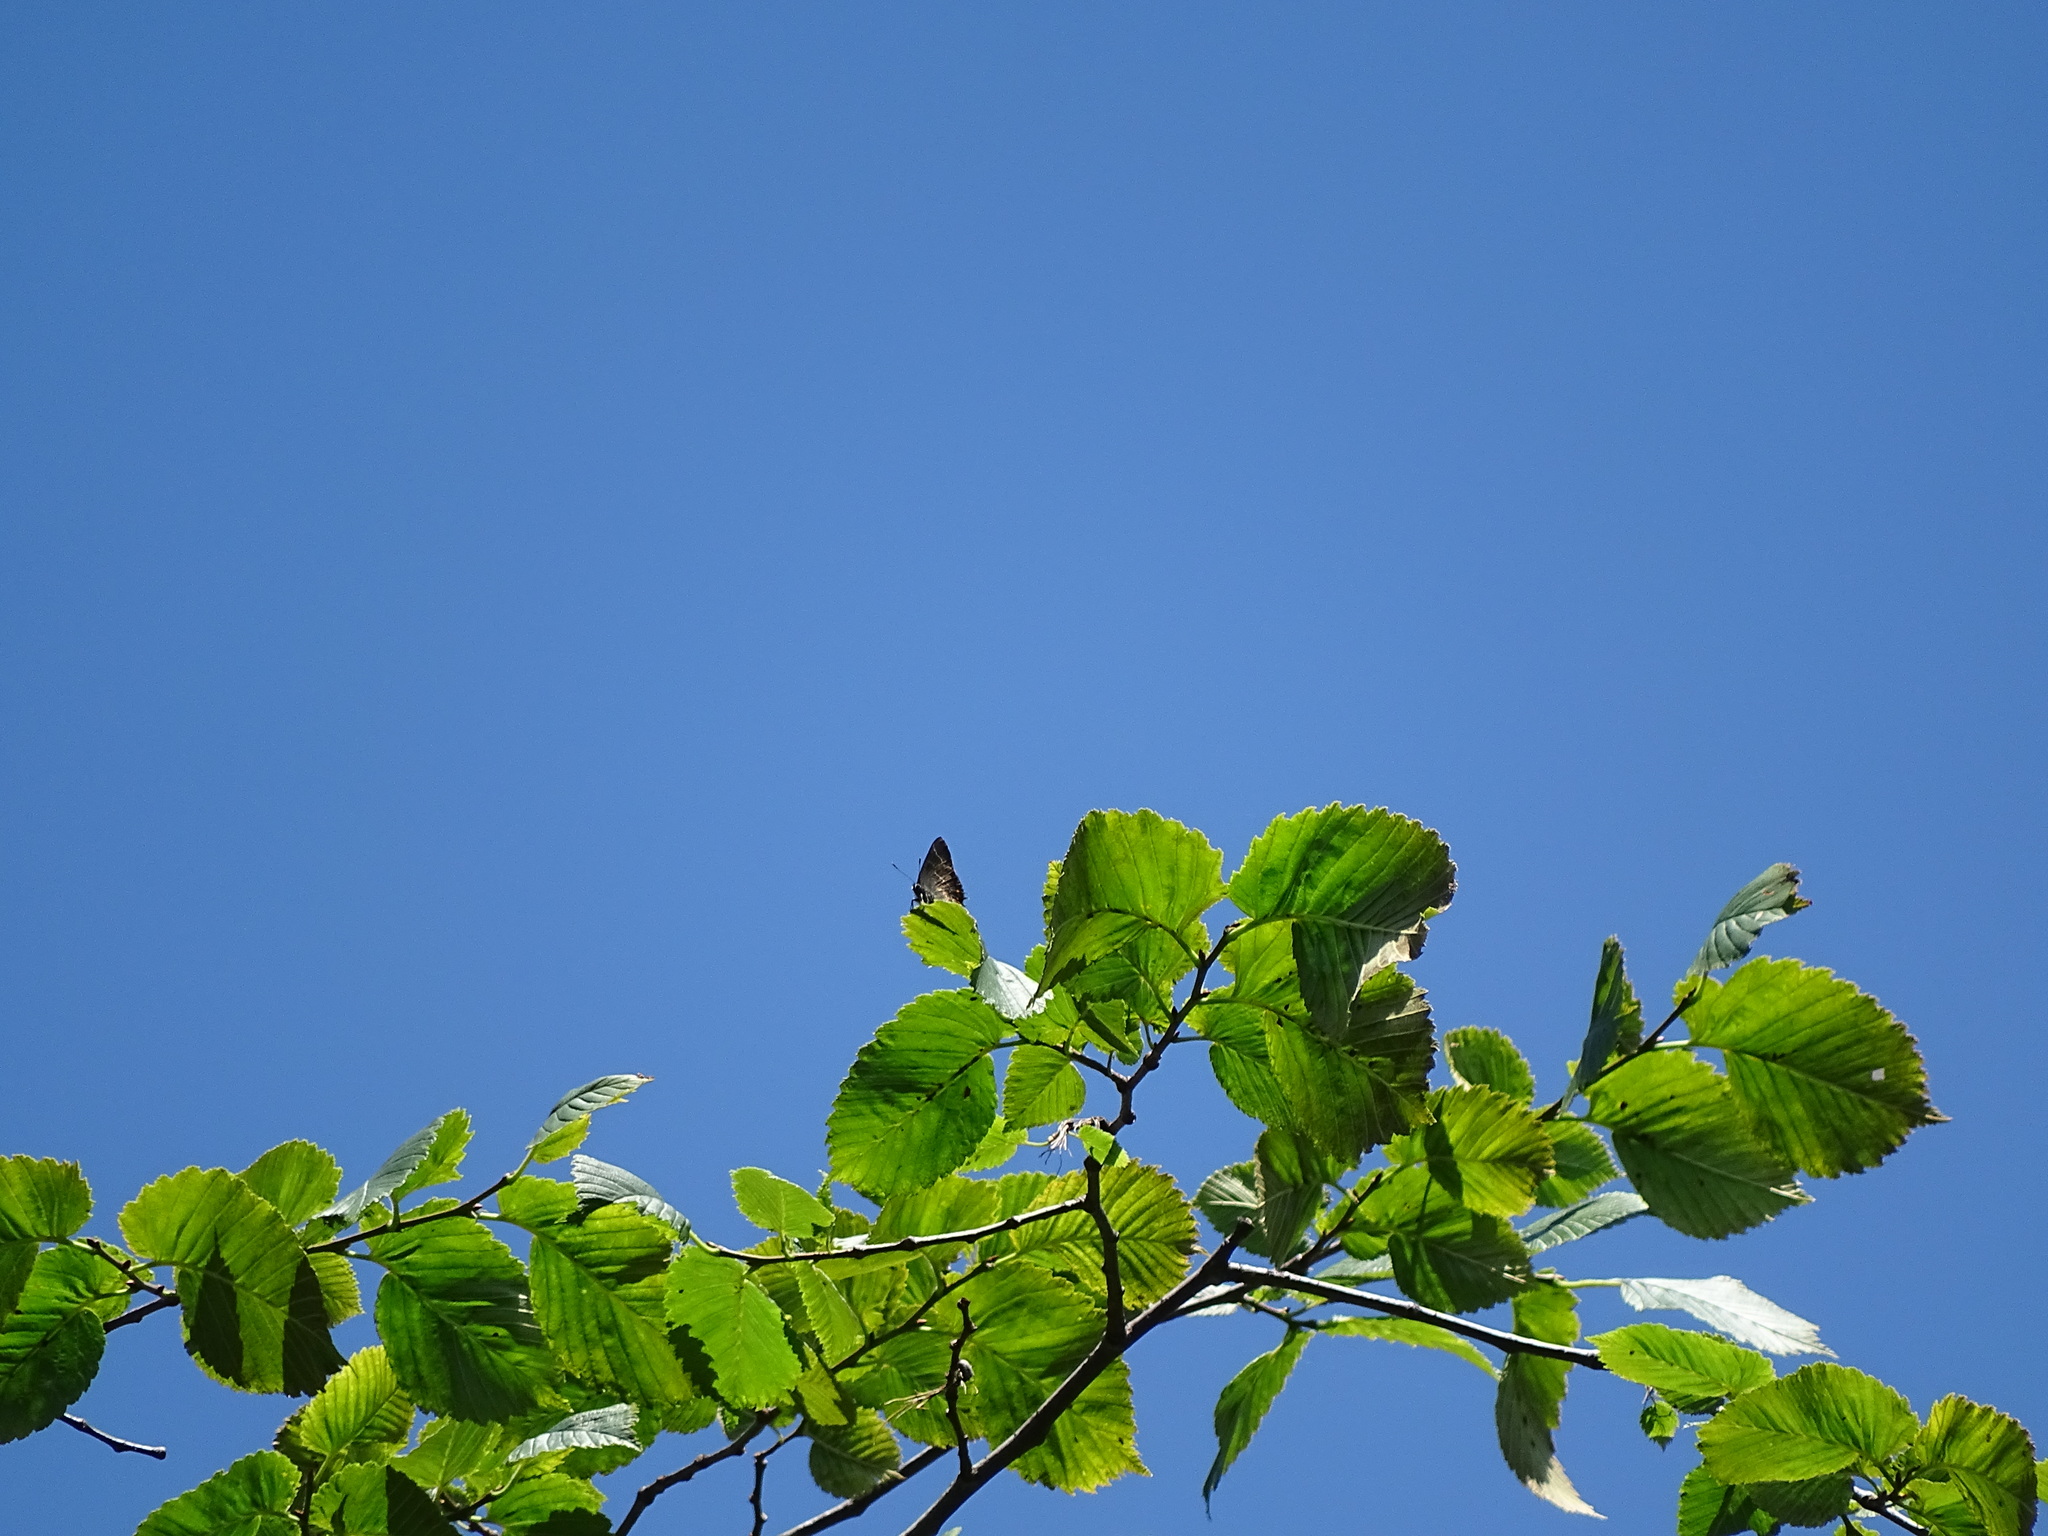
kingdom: Animalia
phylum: Arthropoda
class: Insecta
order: Lepidoptera
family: Lycaenidae
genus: Satyrium
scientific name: Satyrium w-album
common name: White-letter hairstreak
